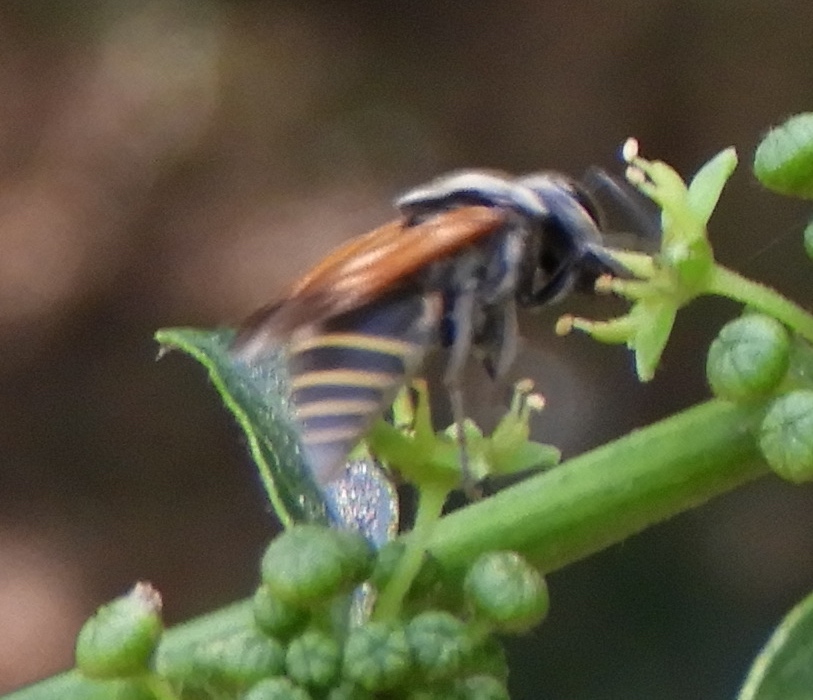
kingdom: Animalia
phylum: Arthropoda
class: Insecta
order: Hymenoptera
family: Vespidae
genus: Brachygastra
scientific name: Brachygastra mellifica
